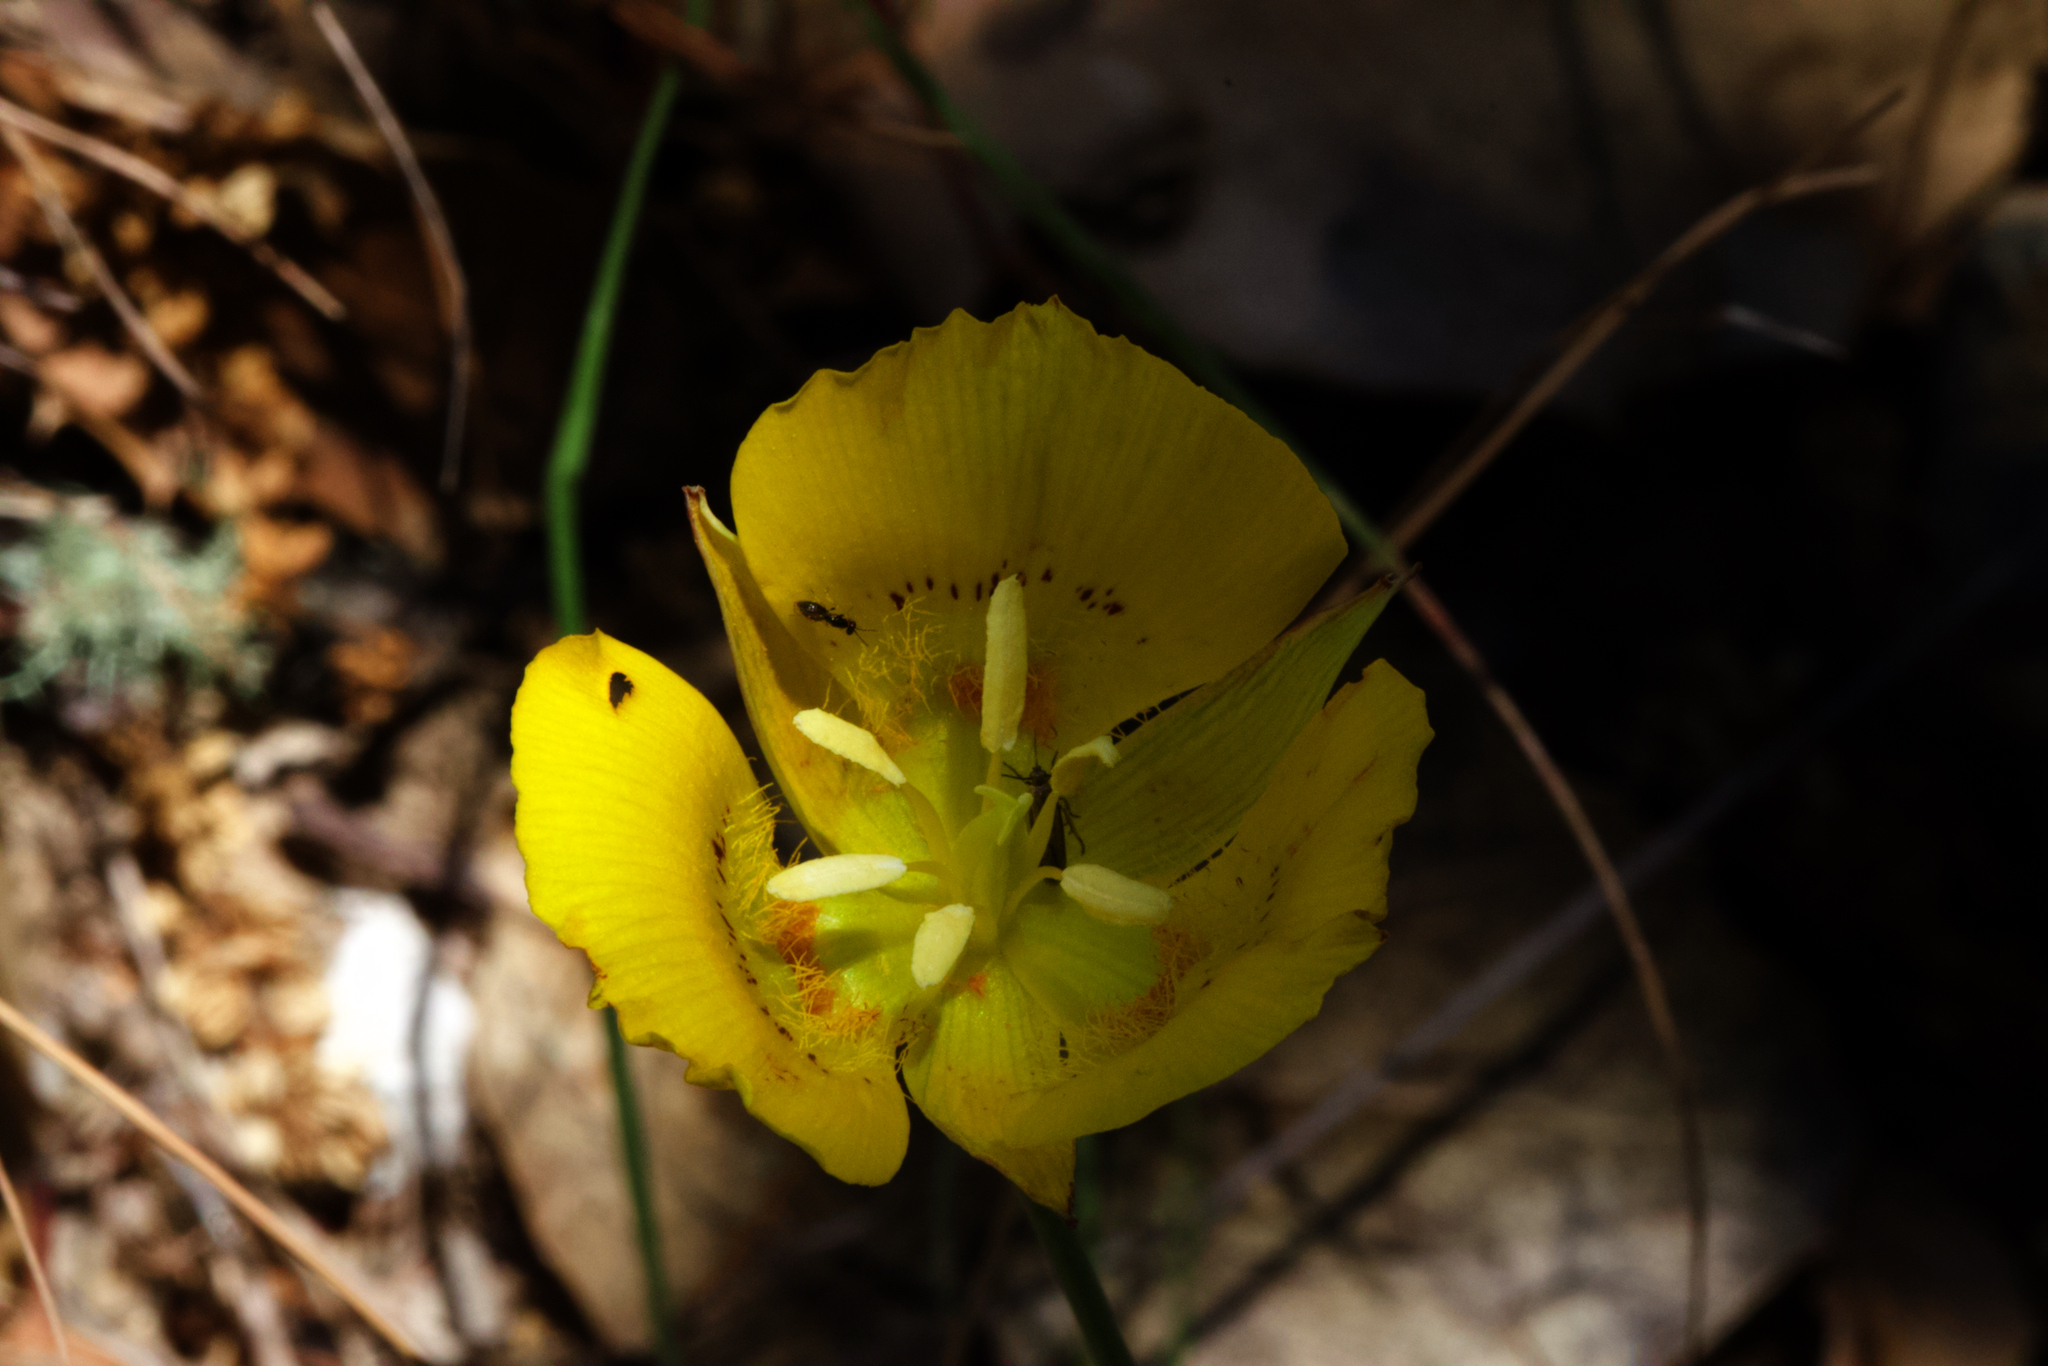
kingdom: Plantae
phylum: Tracheophyta
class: Liliopsida
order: Liliales
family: Liliaceae
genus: Calochortus
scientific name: Calochortus luteus
